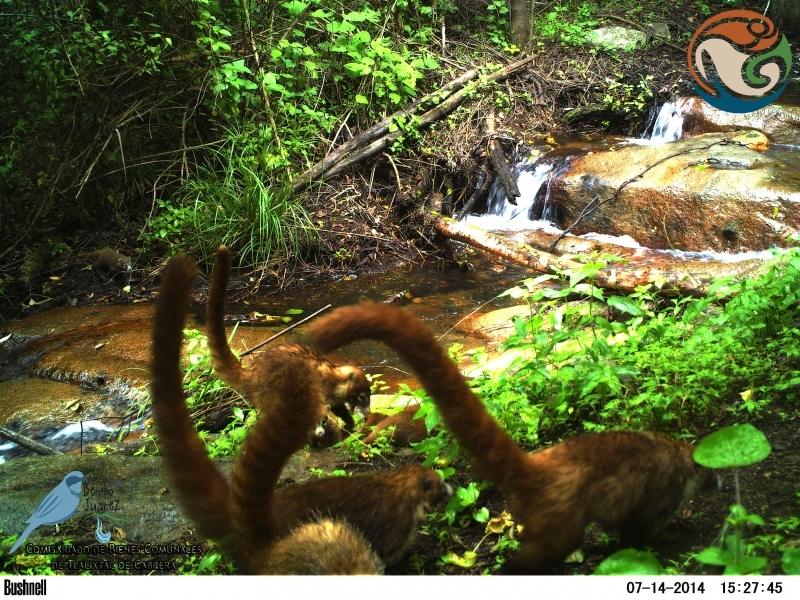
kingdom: Animalia
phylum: Chordata
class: Mammalia
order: Carnivora
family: Procyonidae
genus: Nasua
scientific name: Nasua narica
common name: White-nosed coati
